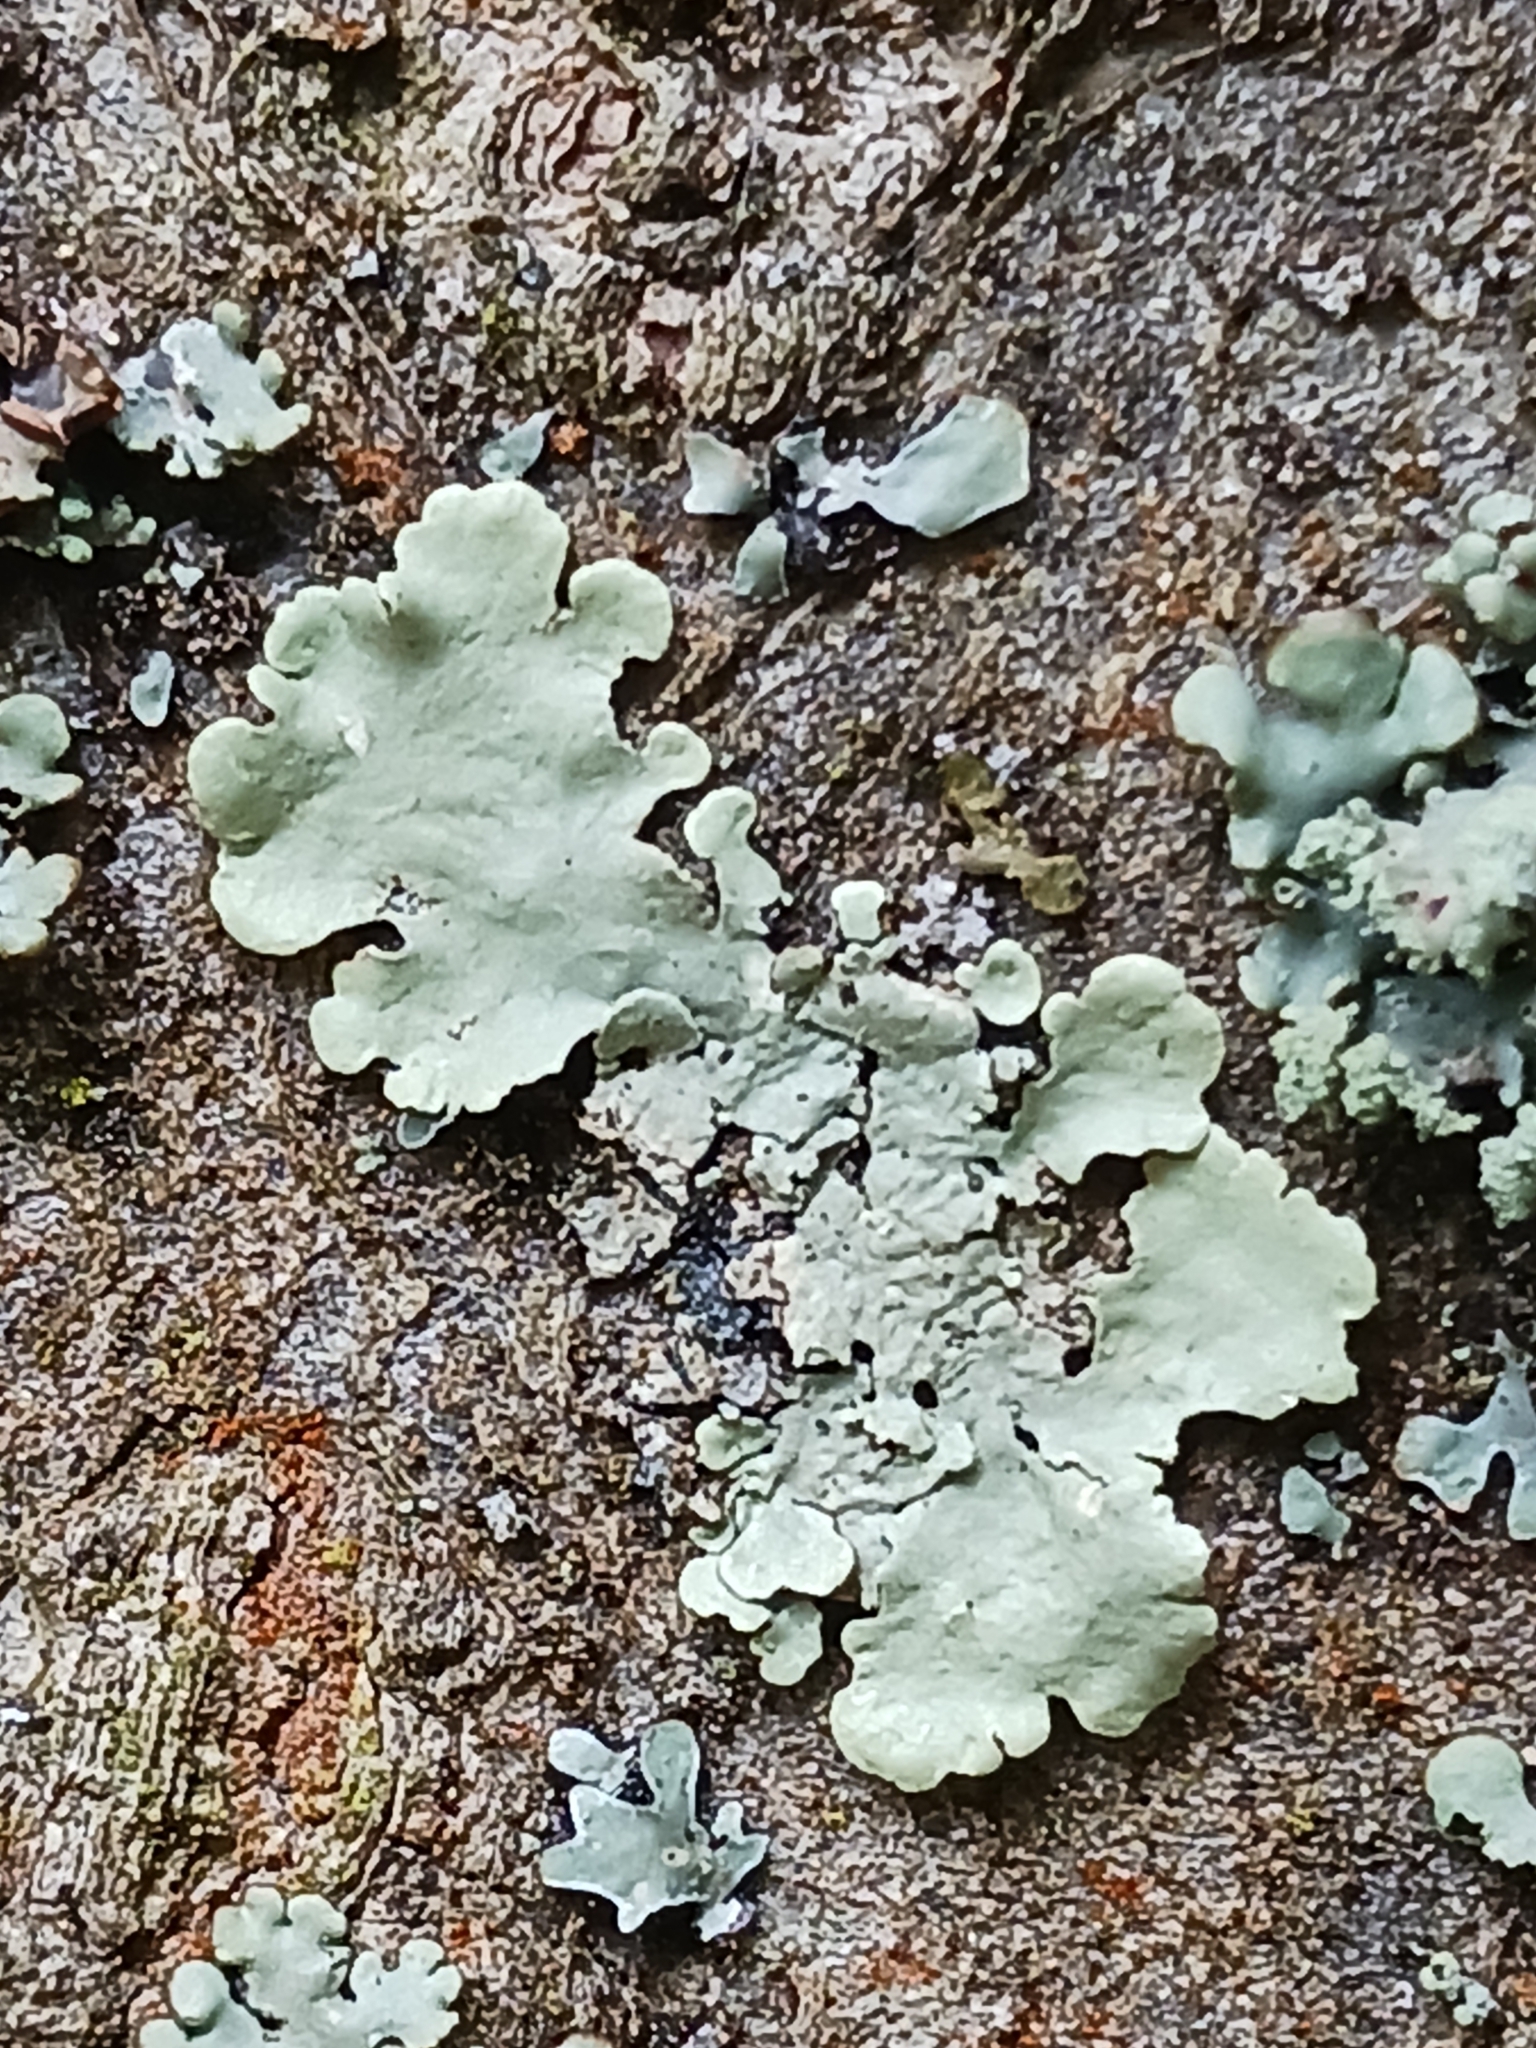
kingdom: Fungi
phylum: Ascomycota
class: Lecanoromycetes
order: Lecanorales
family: Parmeliaceae
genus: Flavoparmelia
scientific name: Flavoparmelia caperata
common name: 40-mile per hour lichen
